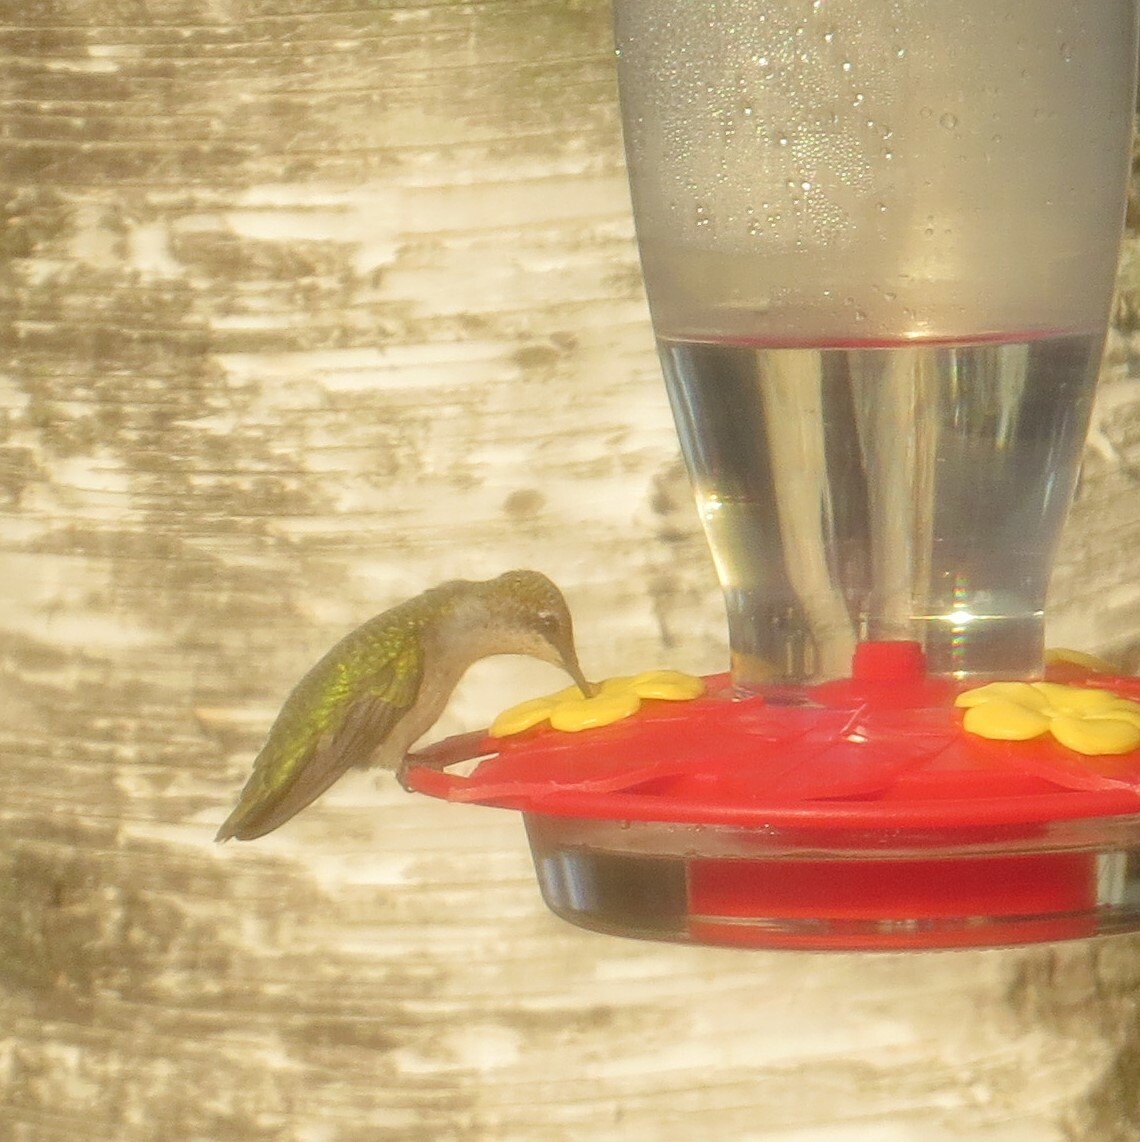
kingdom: Animalia
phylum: Chordata
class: Aves
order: Apodiformes
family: Trochilidae
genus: Archilochus
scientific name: Archilochus colubris
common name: Ruby-throated hummingbird
